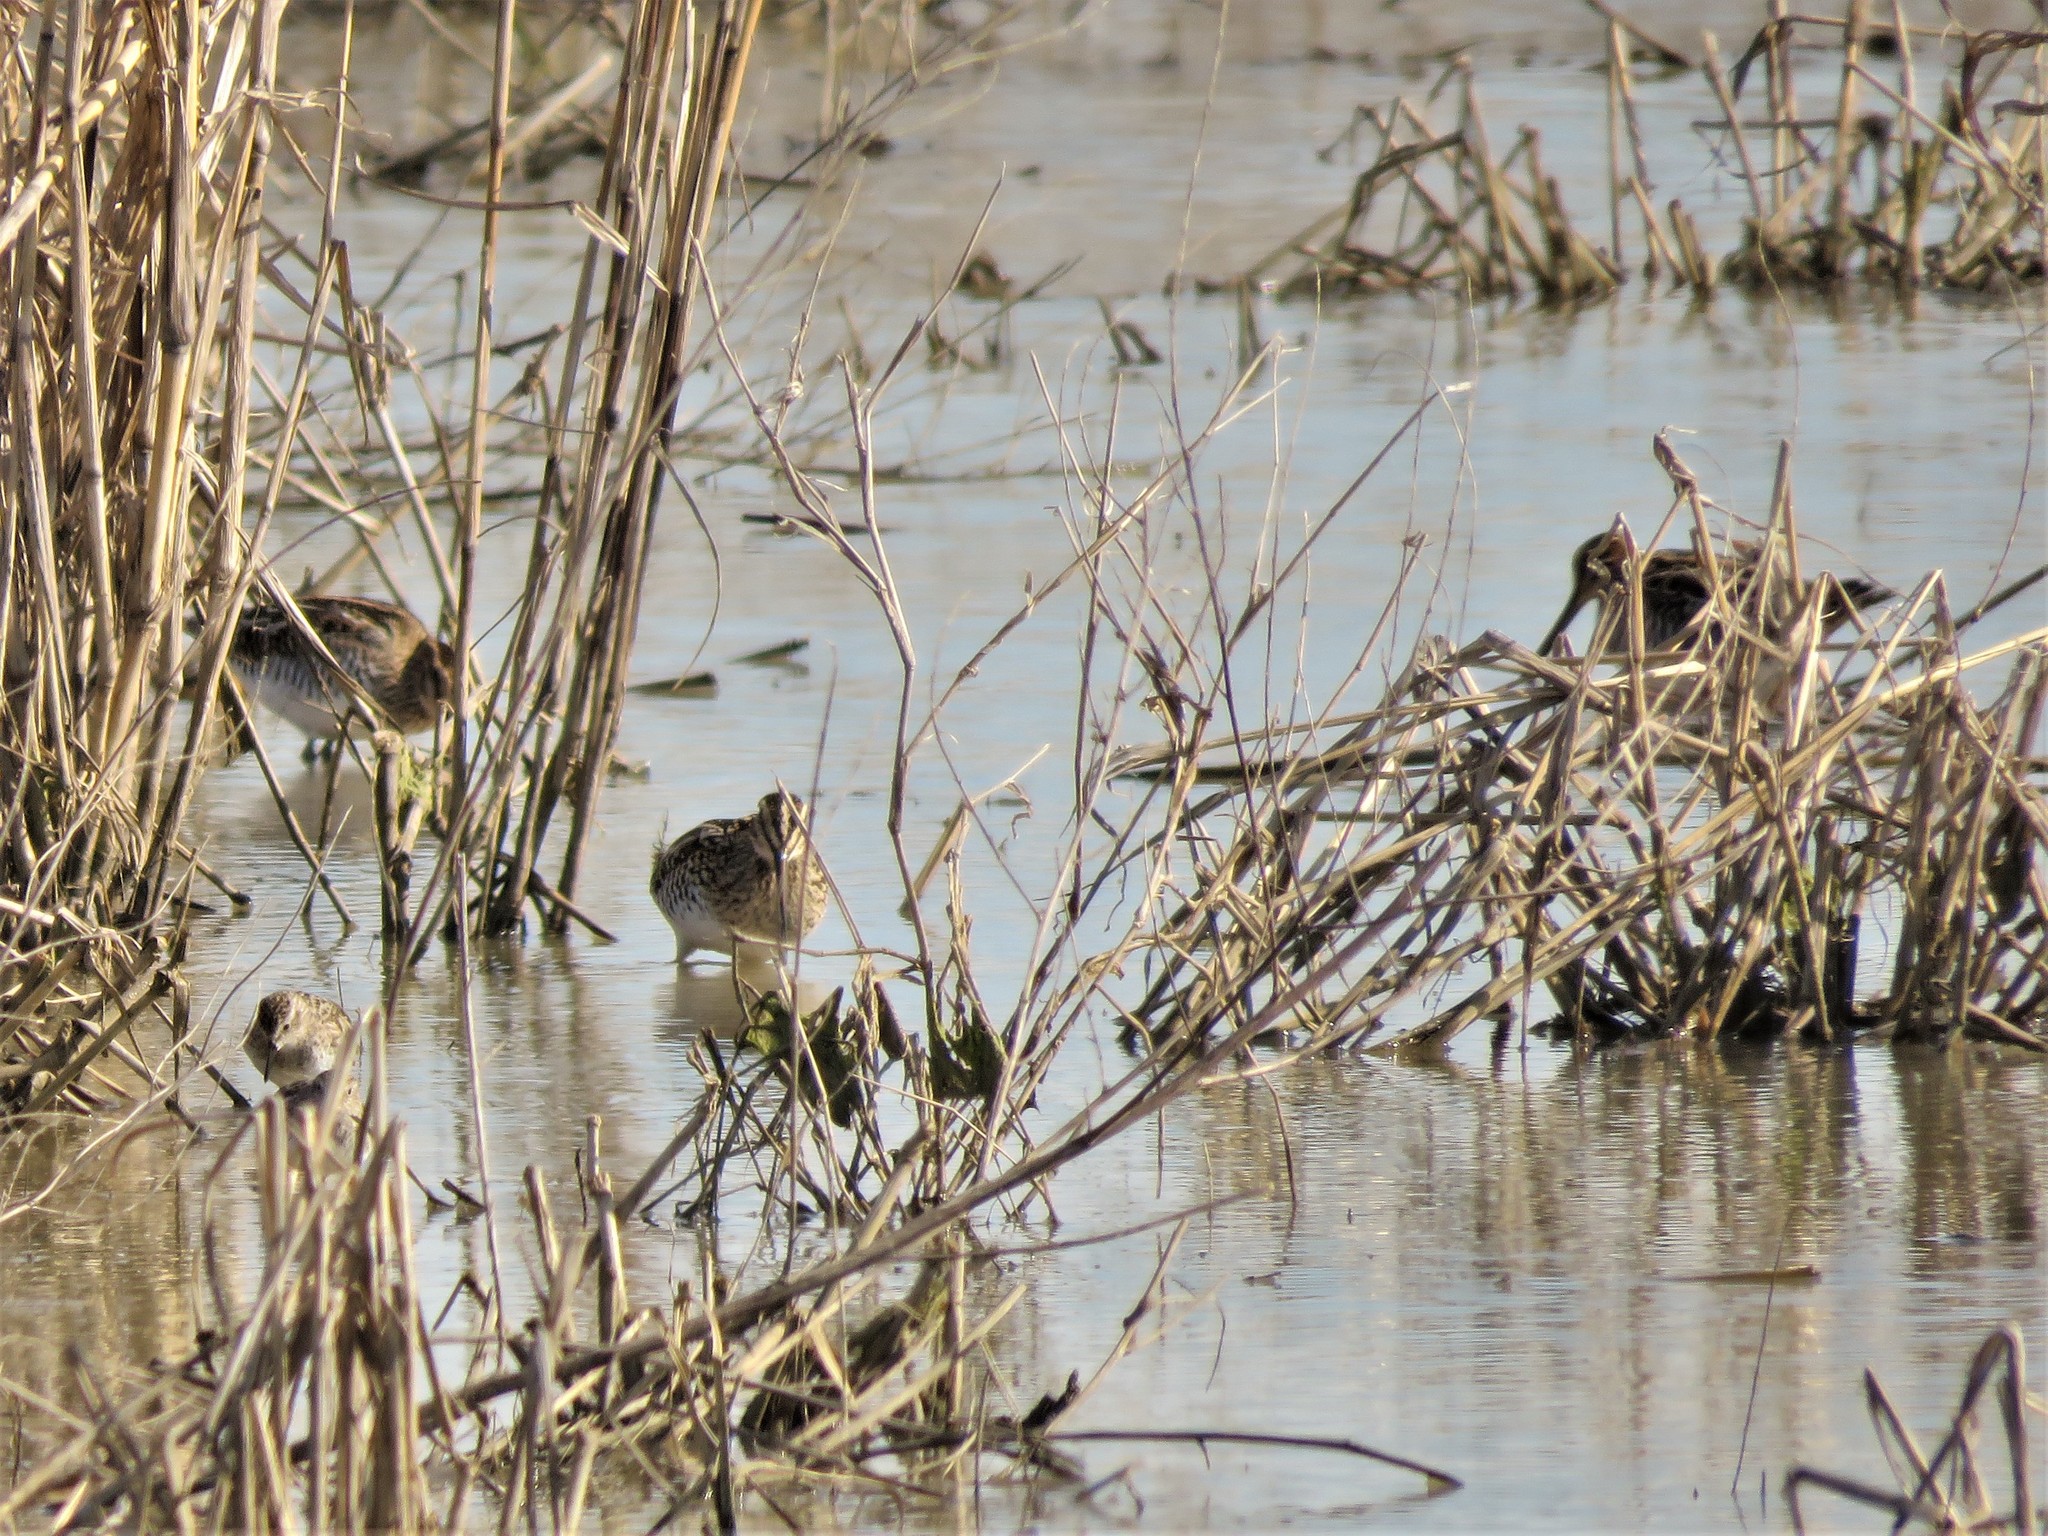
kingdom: Animalia
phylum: Chordata
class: Aves
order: Charadriiformes
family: Scolopacidae
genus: Gallinago
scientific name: Gallinago delicata
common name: Wilson's snipe
